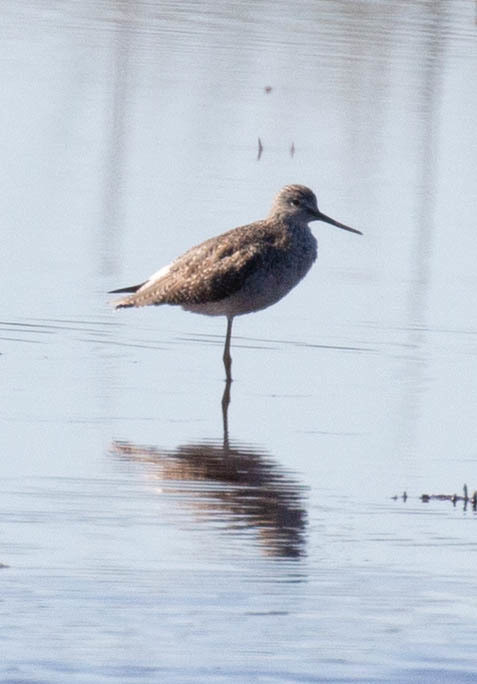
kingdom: Animalia
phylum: Chordata
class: Aves
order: Charadriiformes
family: Scolopacidae
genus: Tringa
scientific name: Tringa melanoleuca
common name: Greater yellowlegs
